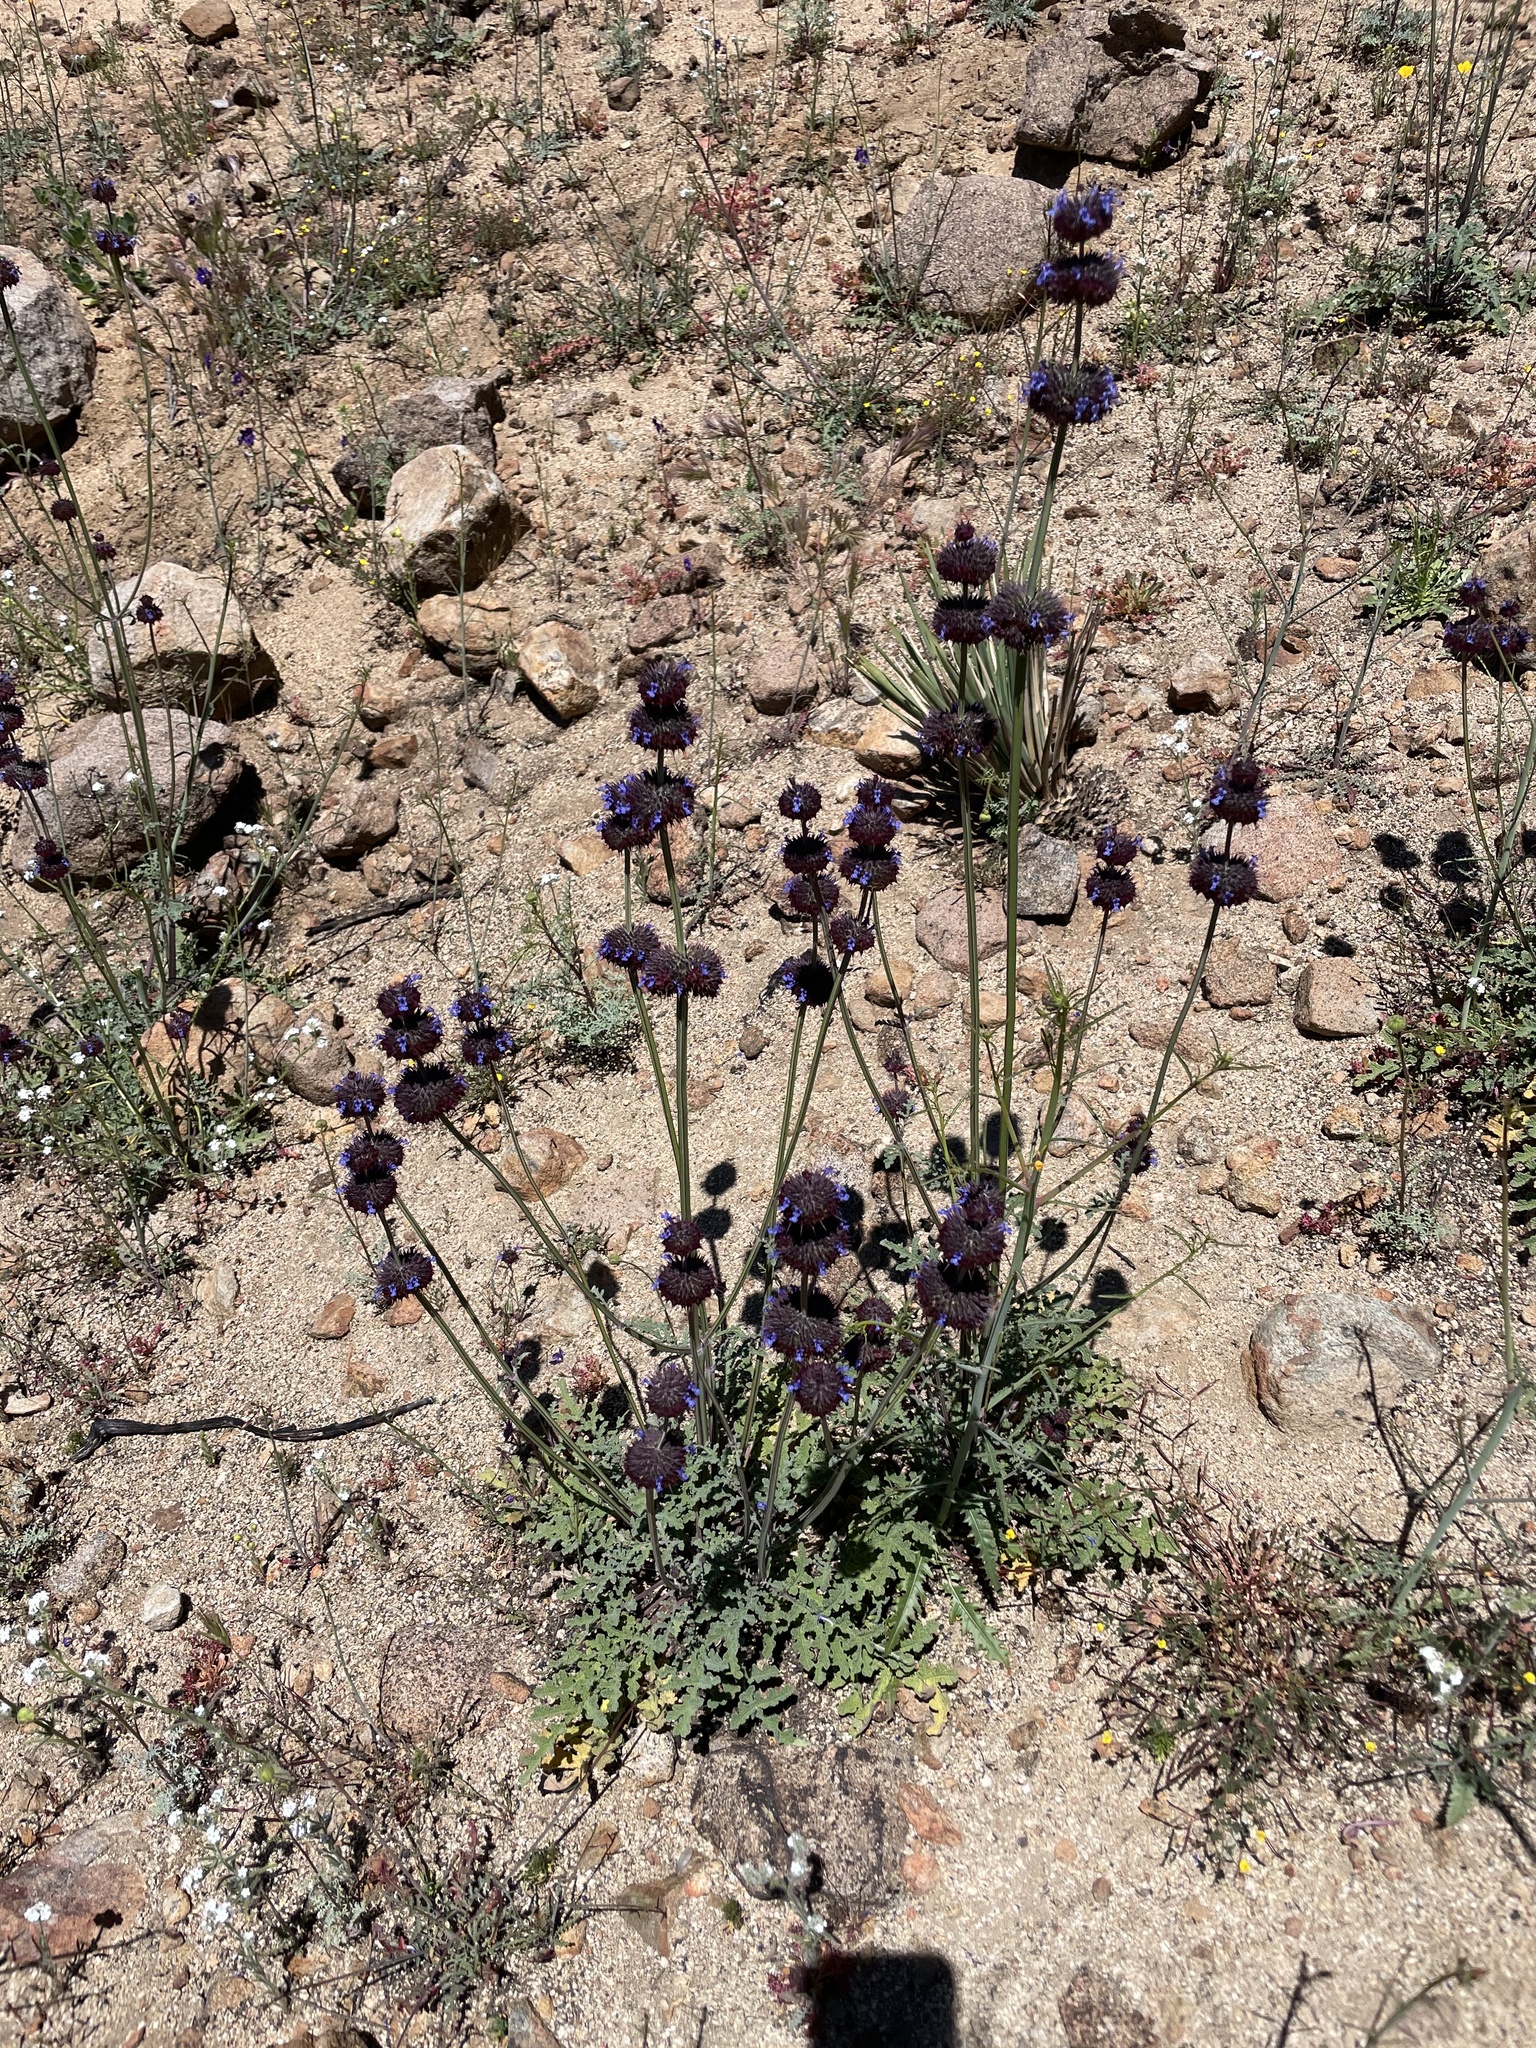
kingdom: Plantae
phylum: Tracheophyta
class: Magnoliopsida
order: Lamiales
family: Lamiaceae
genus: Salvia
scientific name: Salvia columbariae
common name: Chia
